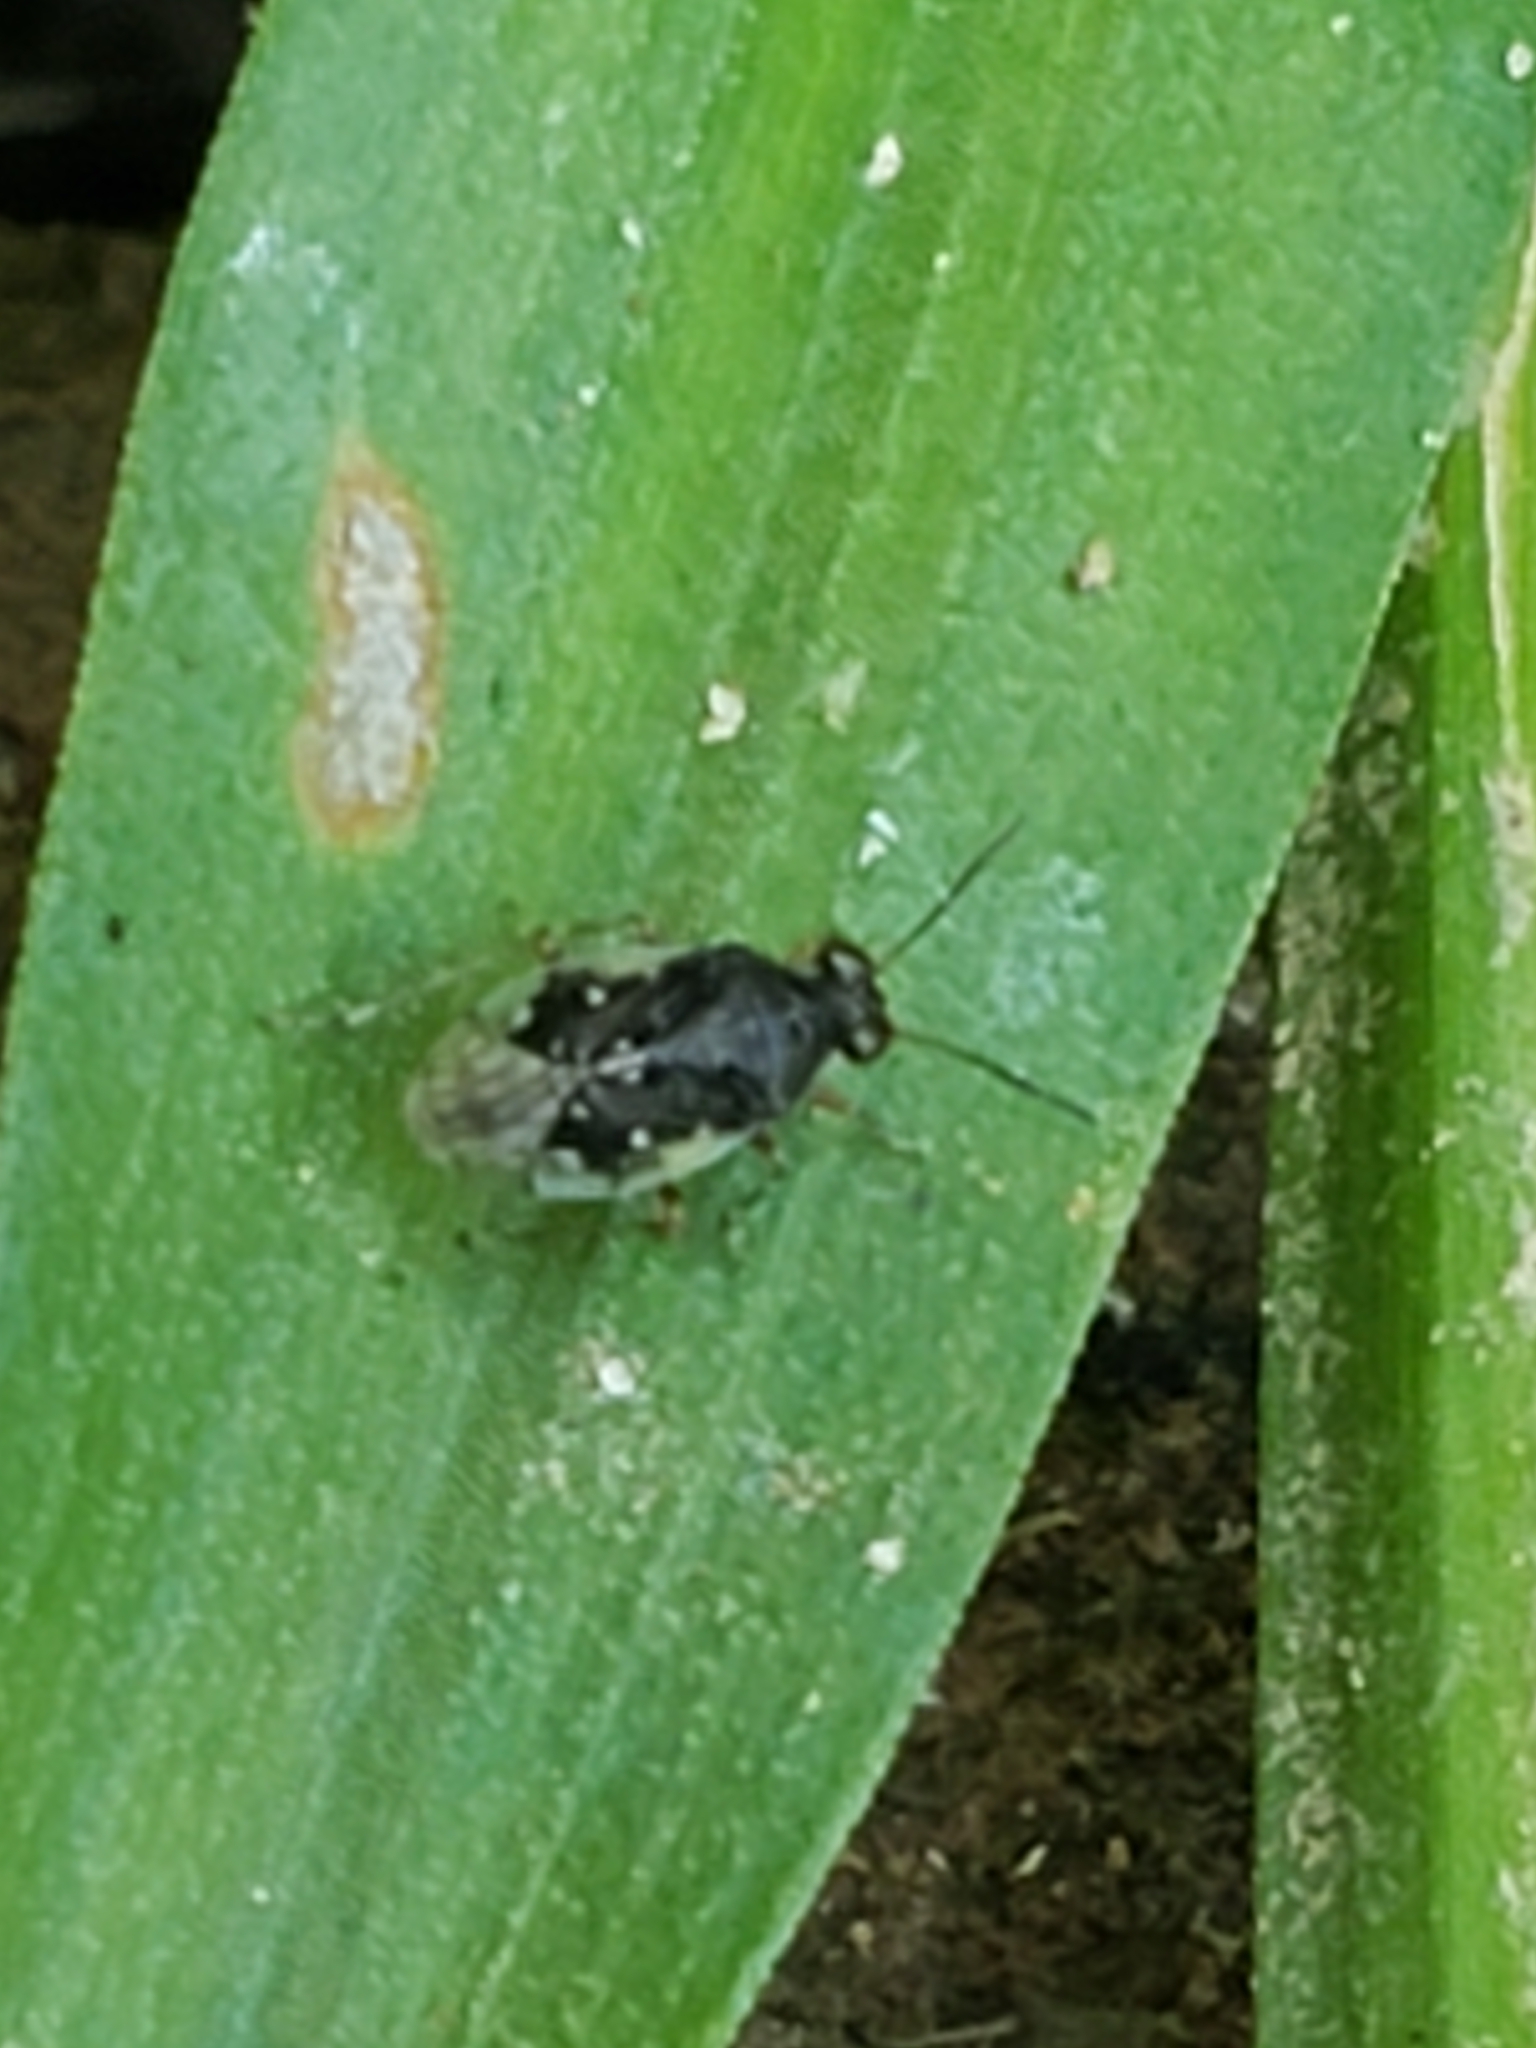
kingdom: Animalia
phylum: Arthropoda
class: Insecta
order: Hemiptera
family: Saldidae
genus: Micracanthia
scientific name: Micracanthia
